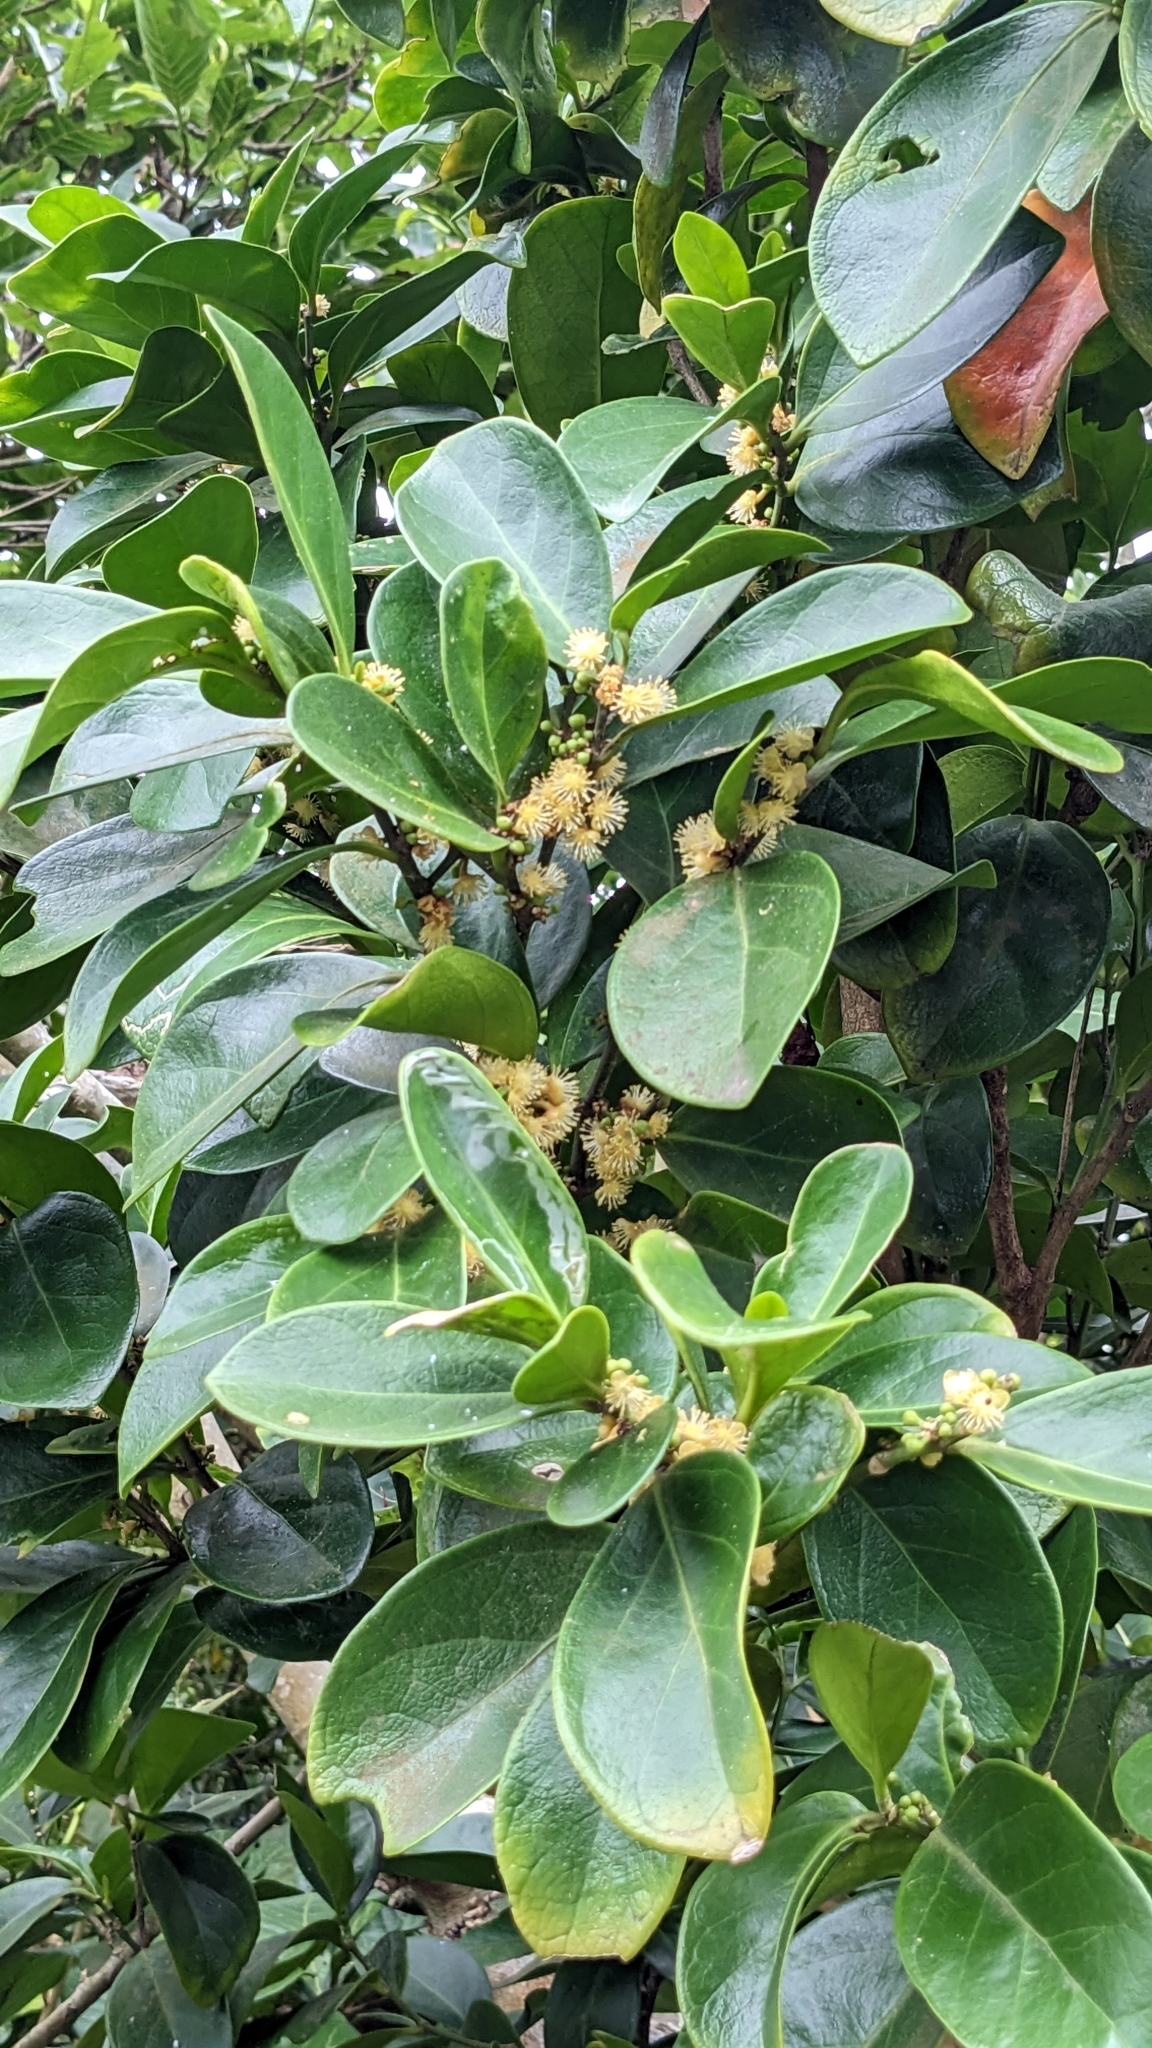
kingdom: Plantae
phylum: Tracheophyta
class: Magnoliopsida
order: Malpighiales
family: Euphorbiaceae
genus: Suregada
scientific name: Suregada aequorea
